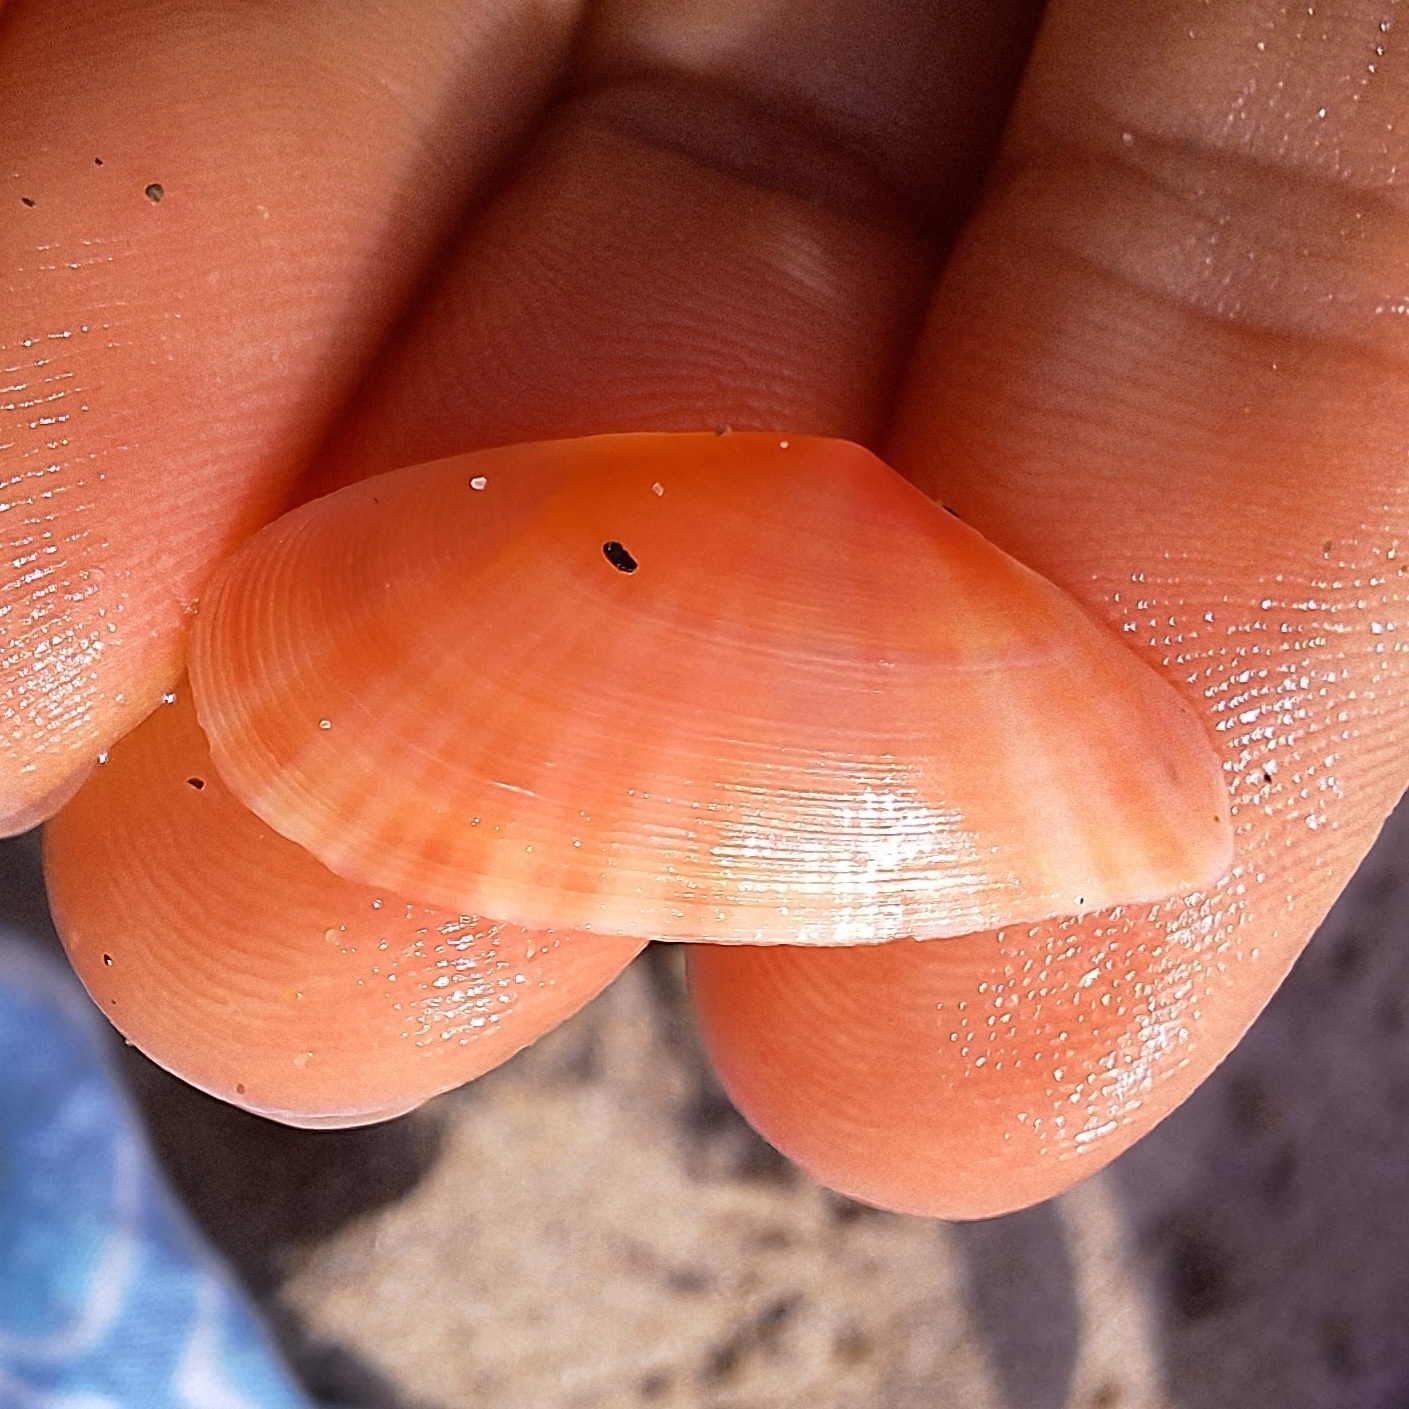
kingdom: Animalia
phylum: Mollusca
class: Bivalvia
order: Cardiida
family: Tellinidae
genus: Moerella
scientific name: Moerella pulchella
